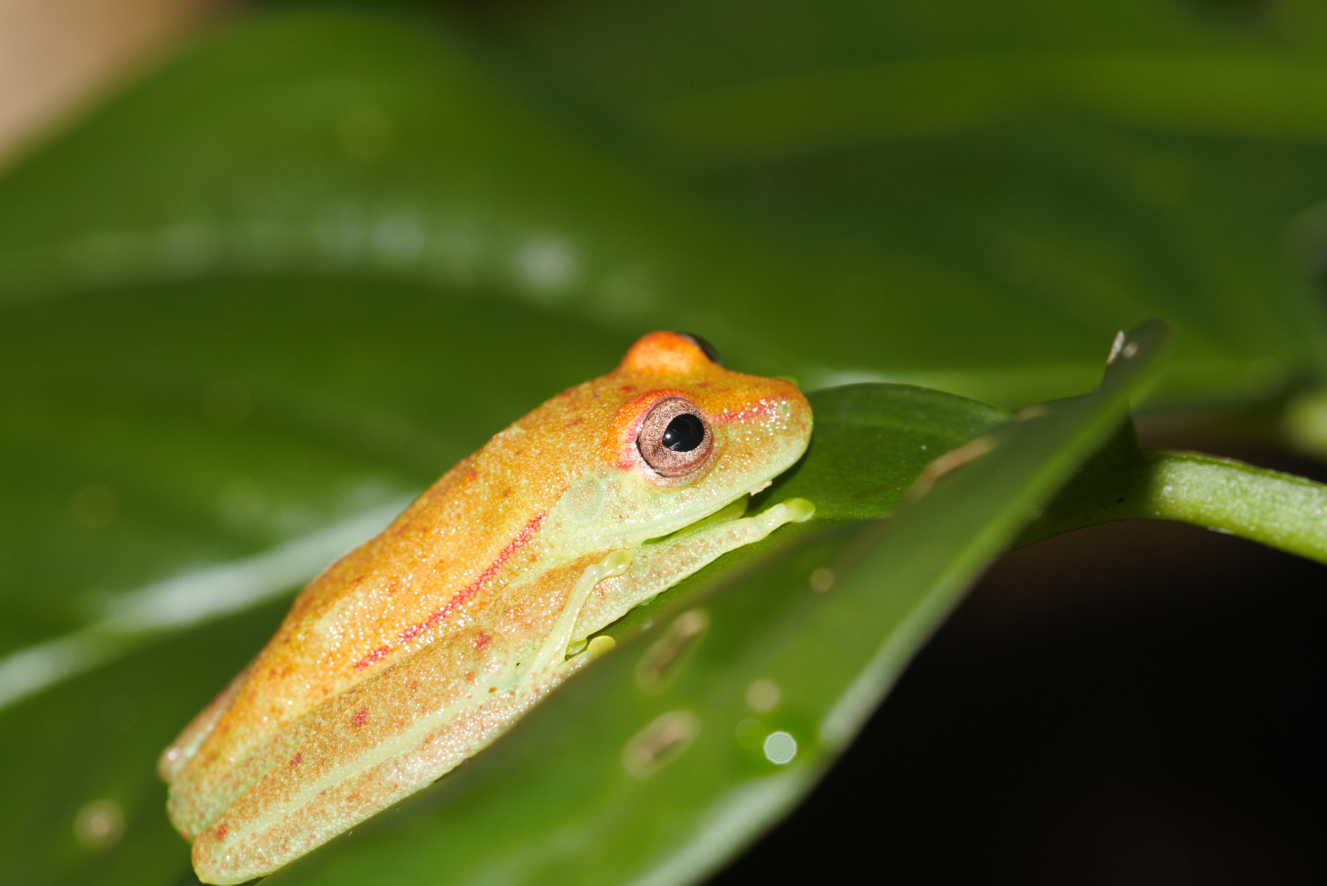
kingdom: Animalia
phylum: Chordata
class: Amphibia
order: Anura
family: Hylidae
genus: Boana
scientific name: Boana punctata
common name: Polka-dot treefrog
